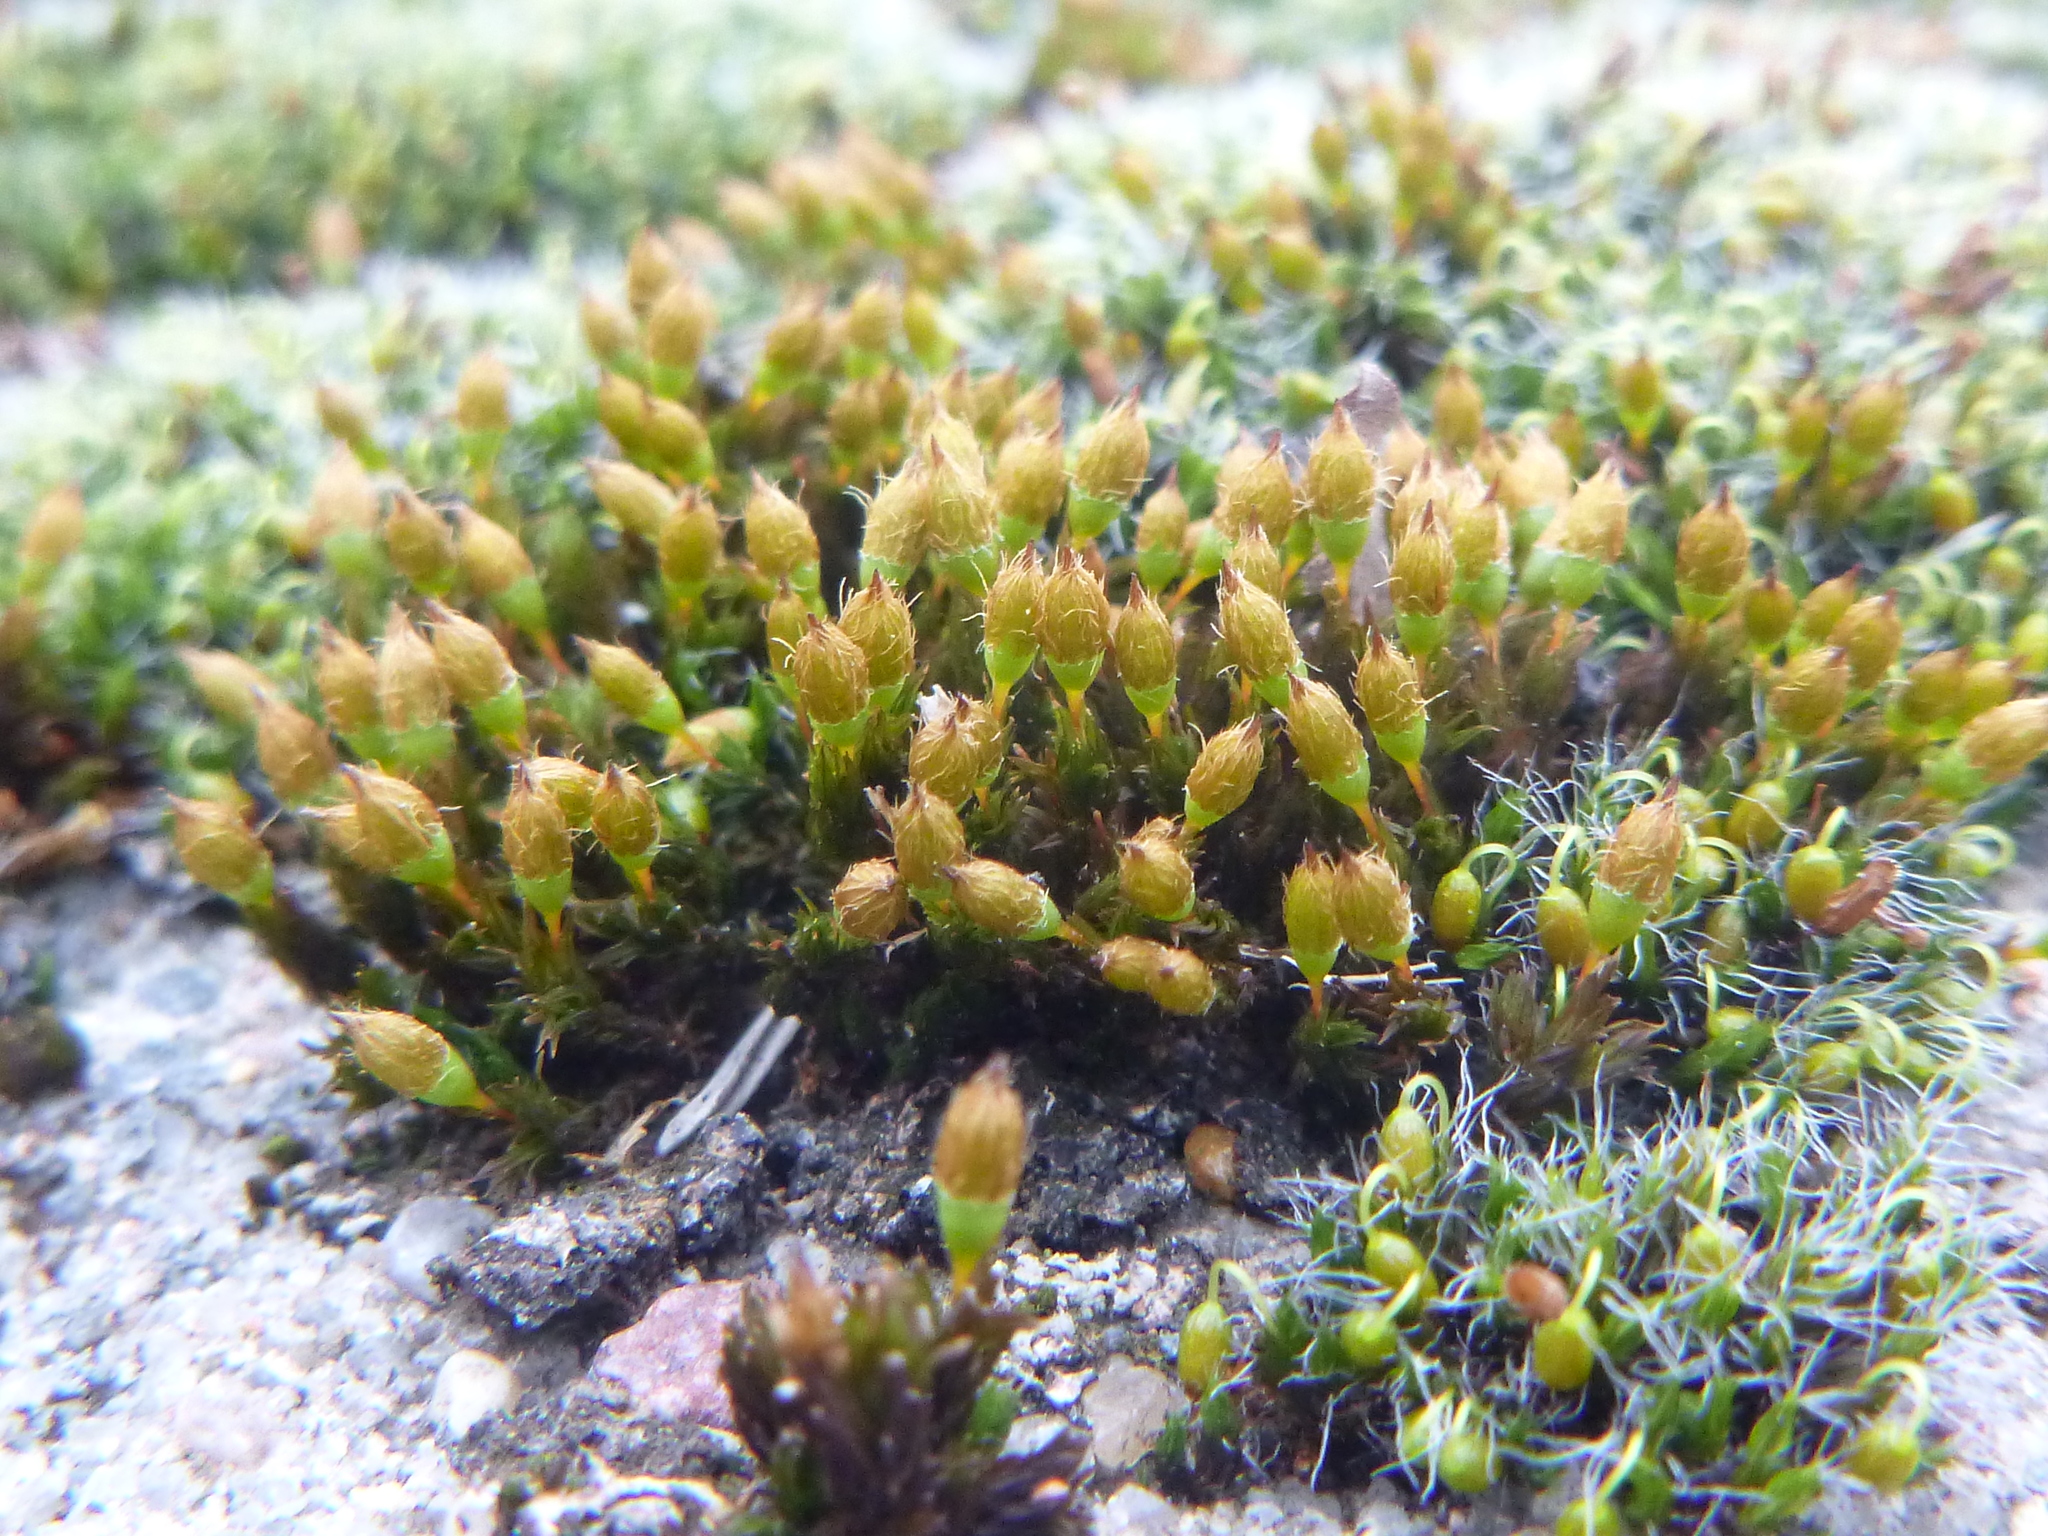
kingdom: Plantae
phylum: Bryophyta
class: Bryopsida
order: Orthotrichales
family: Orthotrichaceae
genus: Orthotrichum
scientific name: Orthotrichum anomalum
